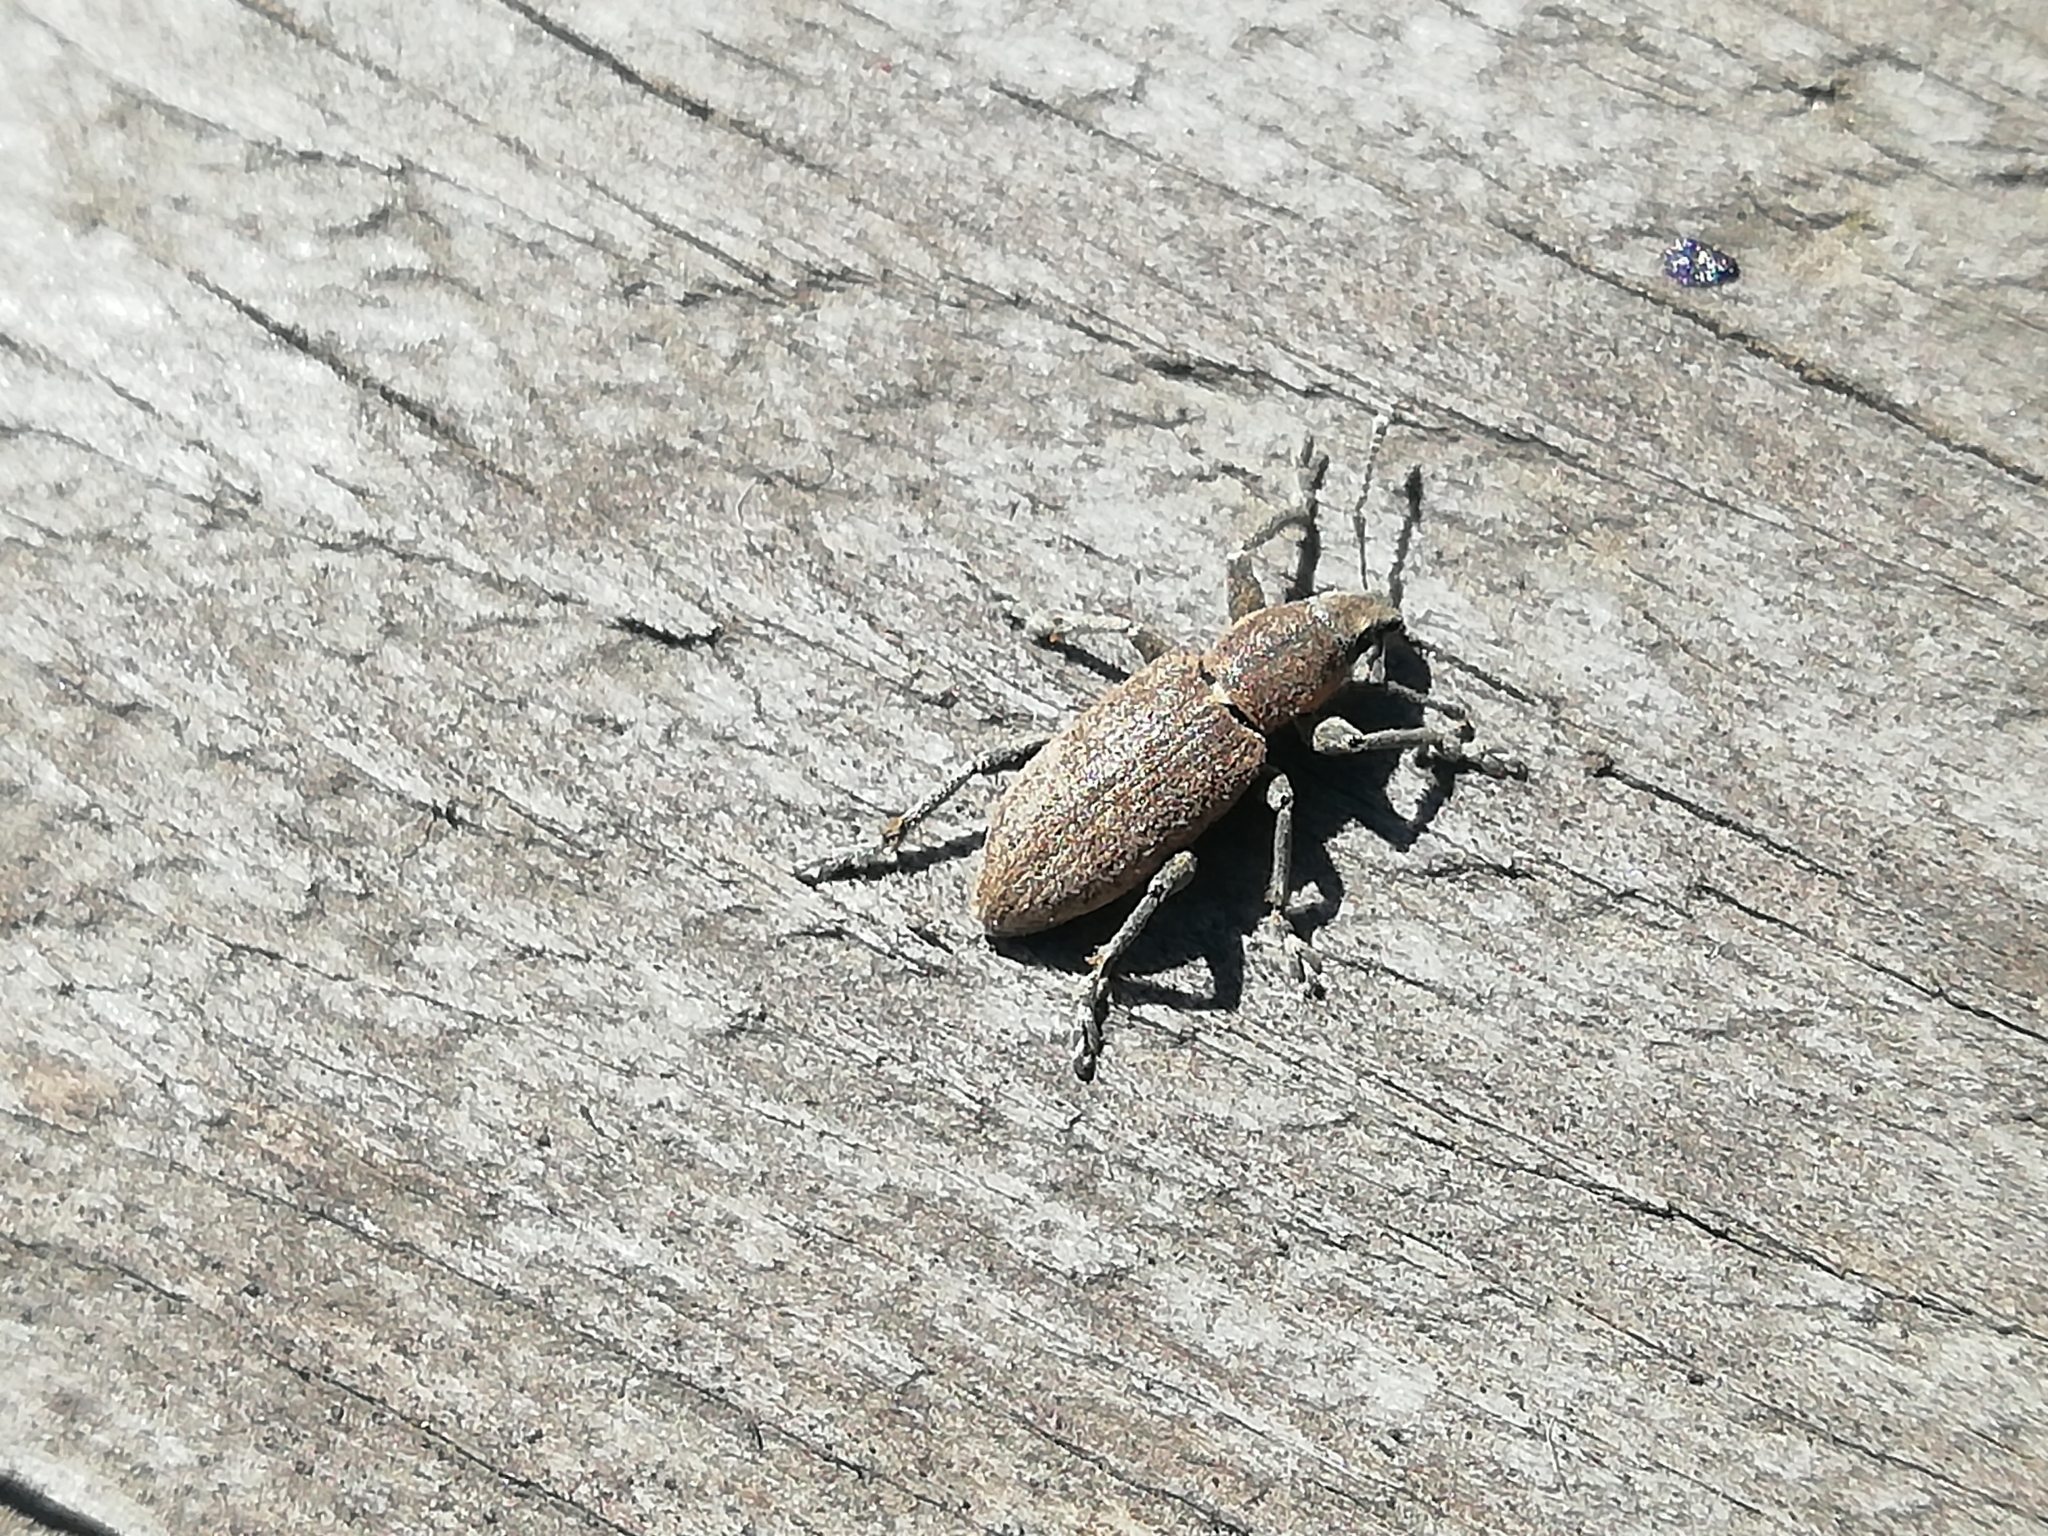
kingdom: Animalia
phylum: Arthropoda
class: Insecta
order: Coleoptera
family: Curculionidae
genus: Tanymecus
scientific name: Tanymecus palliatus
